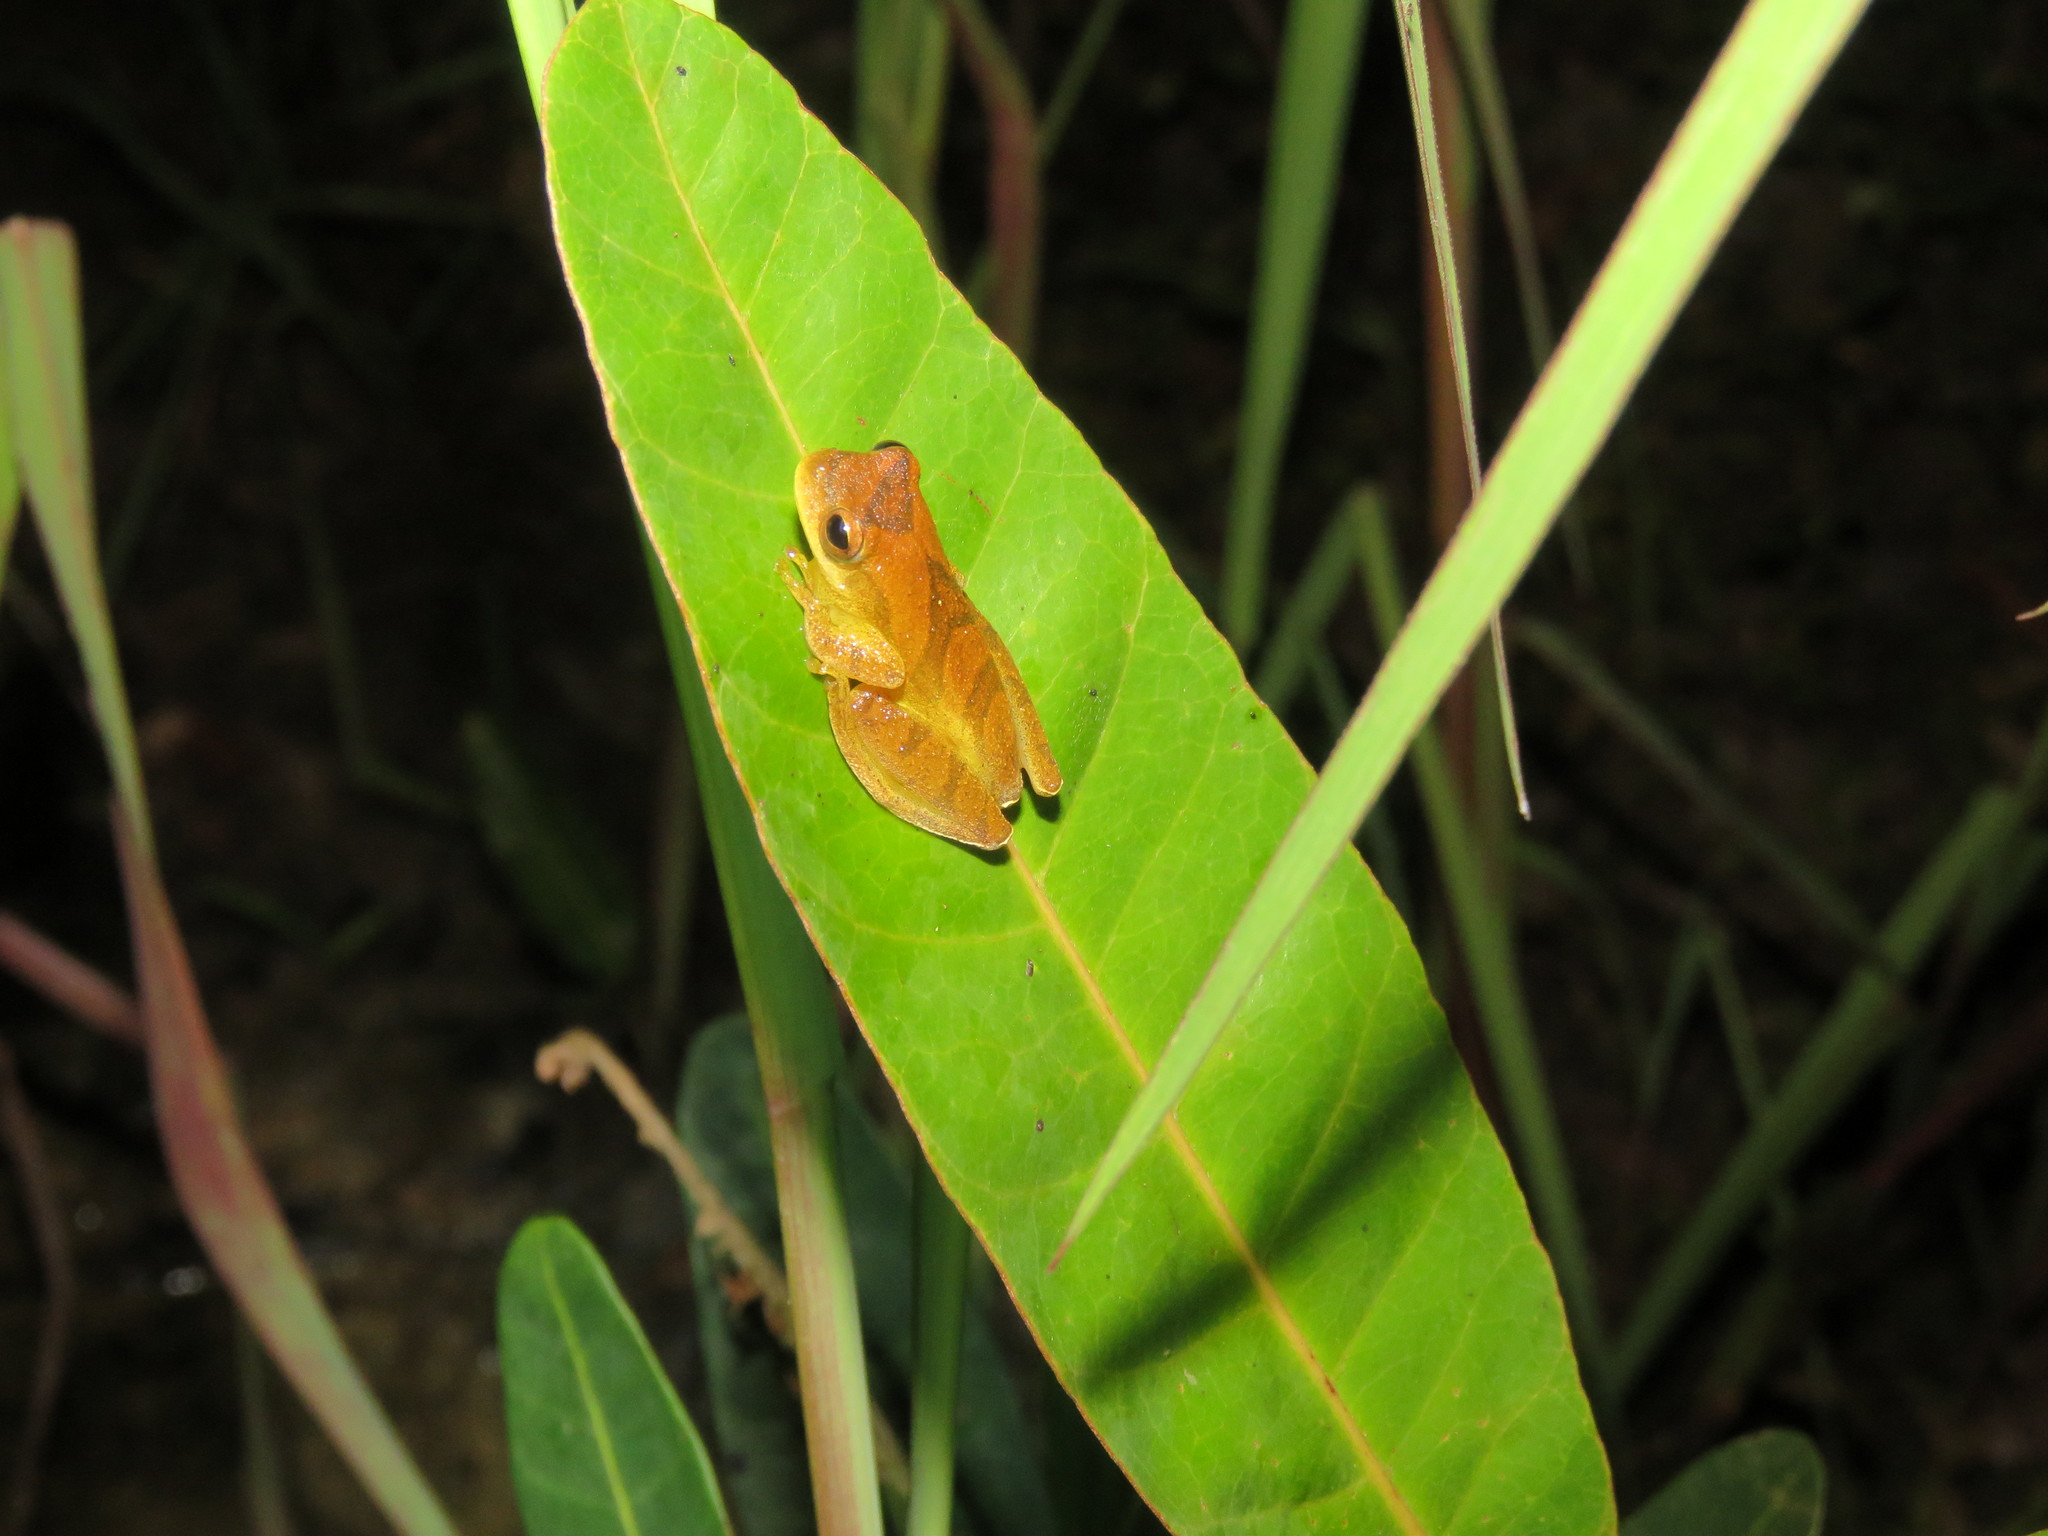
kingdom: Animalia
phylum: Chordata
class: Amphibia
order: Anura
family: Hylidae
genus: Dendropsophus
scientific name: Dendropsophus minutus
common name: Lesser treefrog
